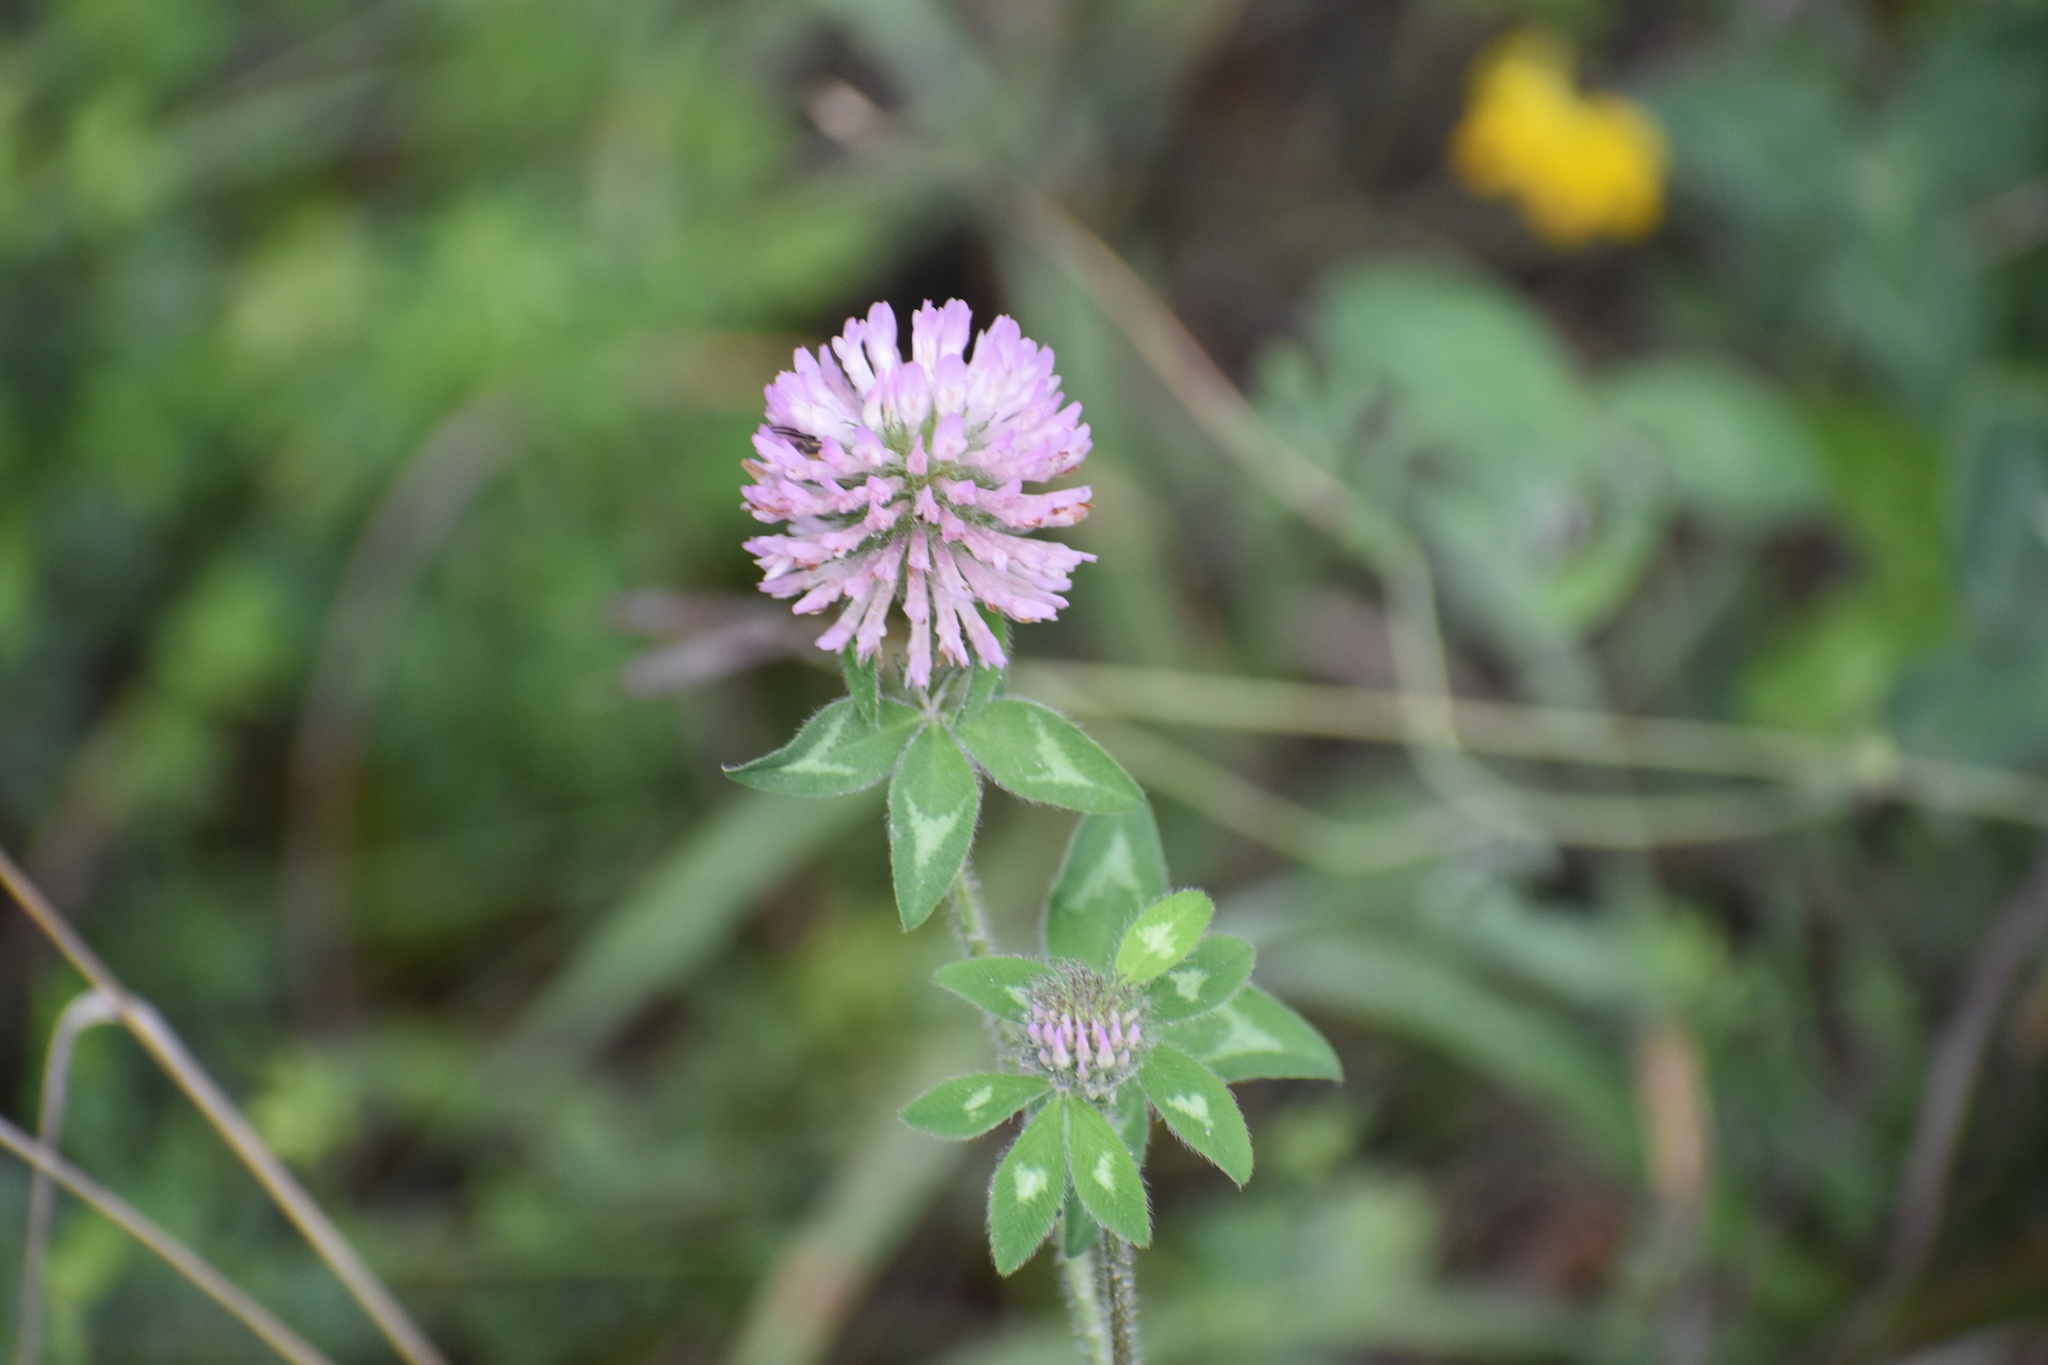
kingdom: Plantae
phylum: Tracheophyta
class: Magnoliopsida
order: Fabales
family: Fabaceae
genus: Trifolium
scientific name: Trifolium pratense
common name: Red clover
